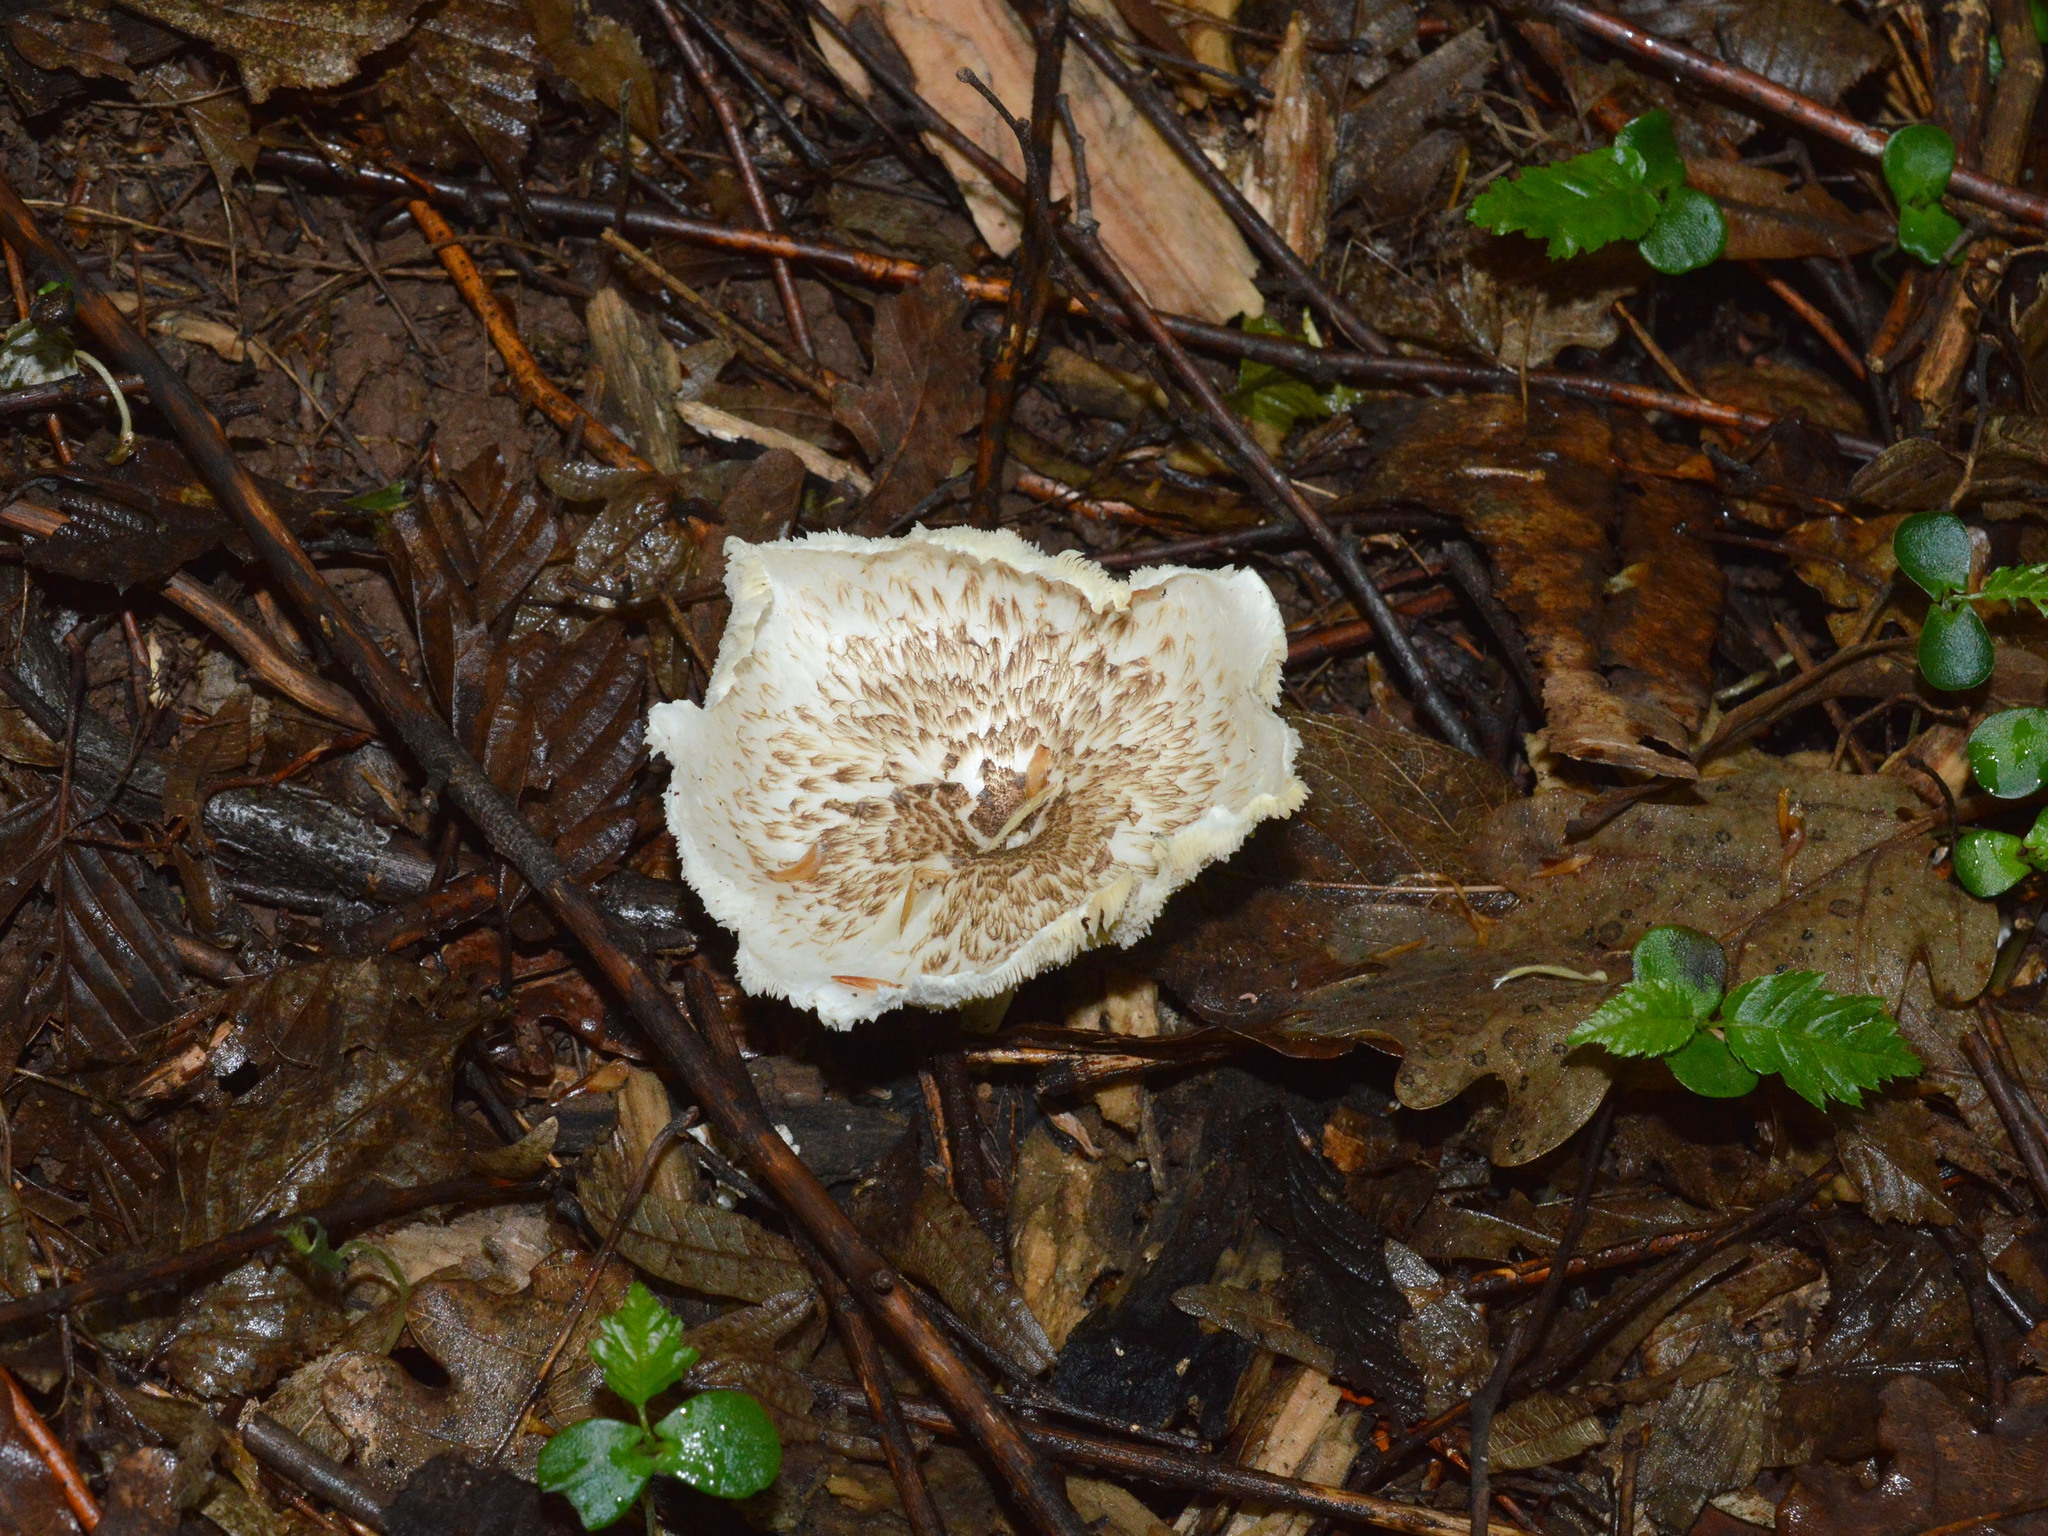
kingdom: Fungi
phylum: Basidiomycota
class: Agaricomycetes
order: Polyporales
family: Polyporaceae
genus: Lentinus
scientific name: Lentinus tigrinus
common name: Tiger sawgill
